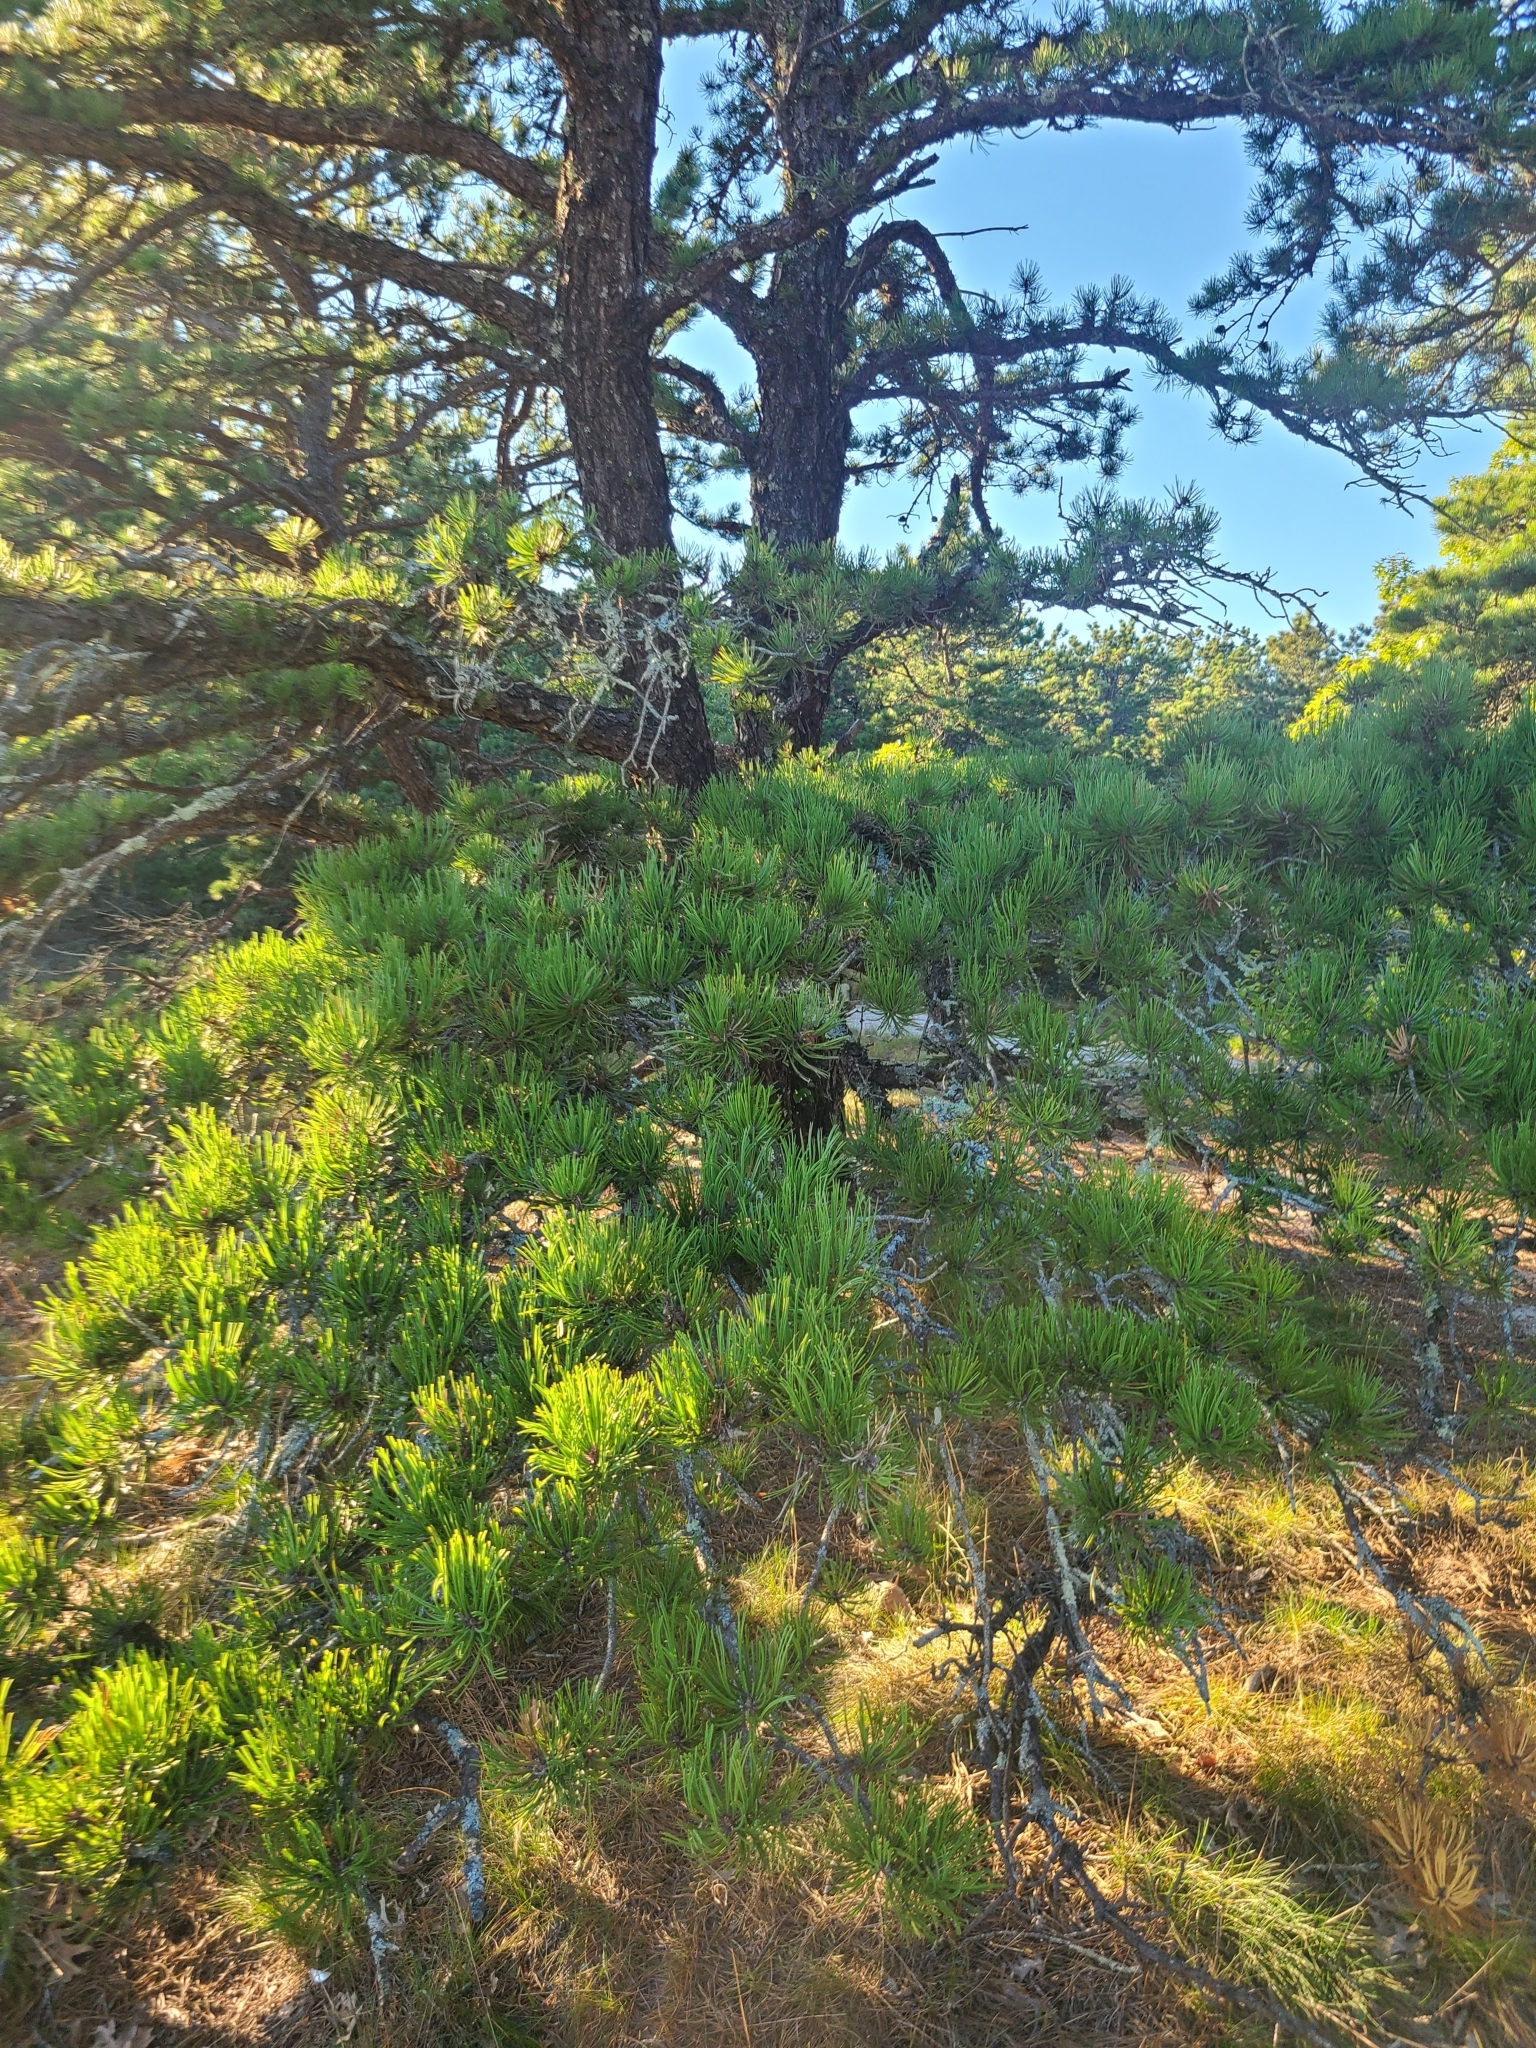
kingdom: Plantae
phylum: Tracheophyta
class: Pinopsida
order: Pinales
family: Pinaceae
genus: Pinus
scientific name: Pinus rigida
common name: Pitch pine
